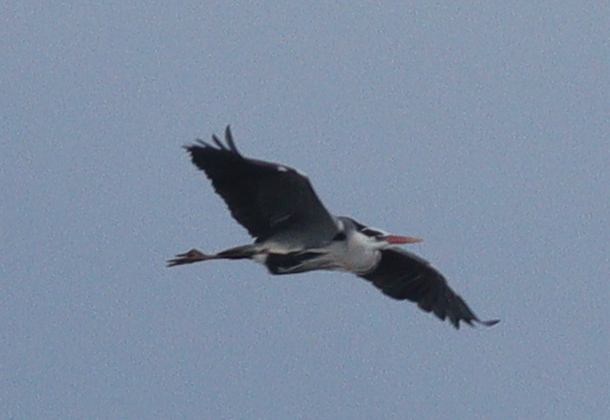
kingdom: Animalia
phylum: Chordata
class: Aves
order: Pelecaniformes
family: Ardeidae
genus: Ardea
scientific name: Ardea cinerea
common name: Grey heron
